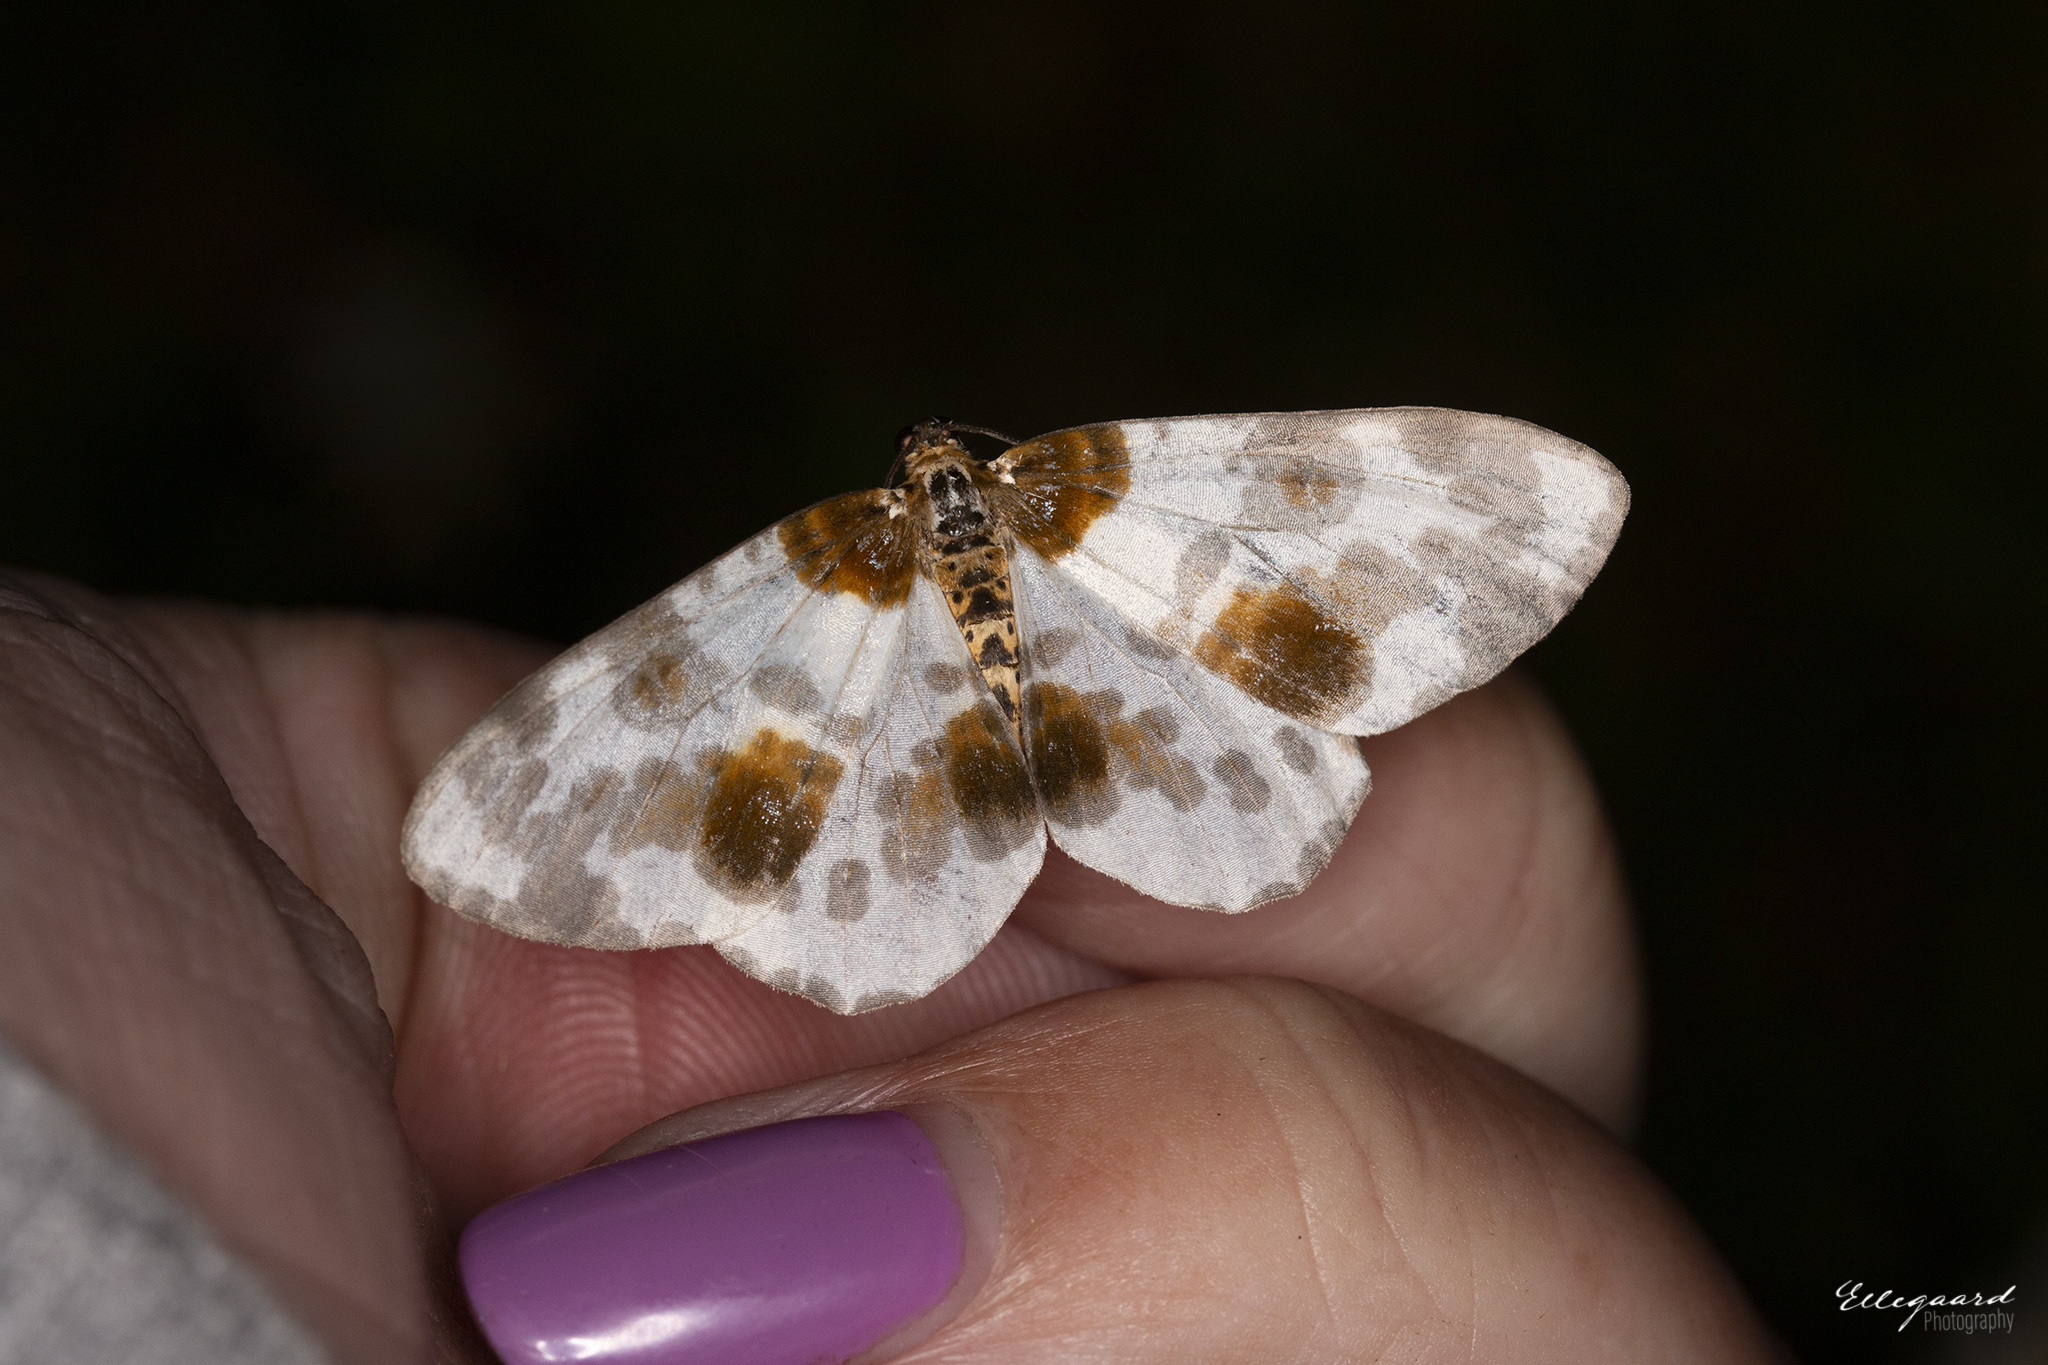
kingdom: Animalia
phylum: Arthropoda
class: Insecta
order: Lepidoptera
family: Geometridae
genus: Abraxas
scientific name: Abraxas sylvata
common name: Clouded magpie
